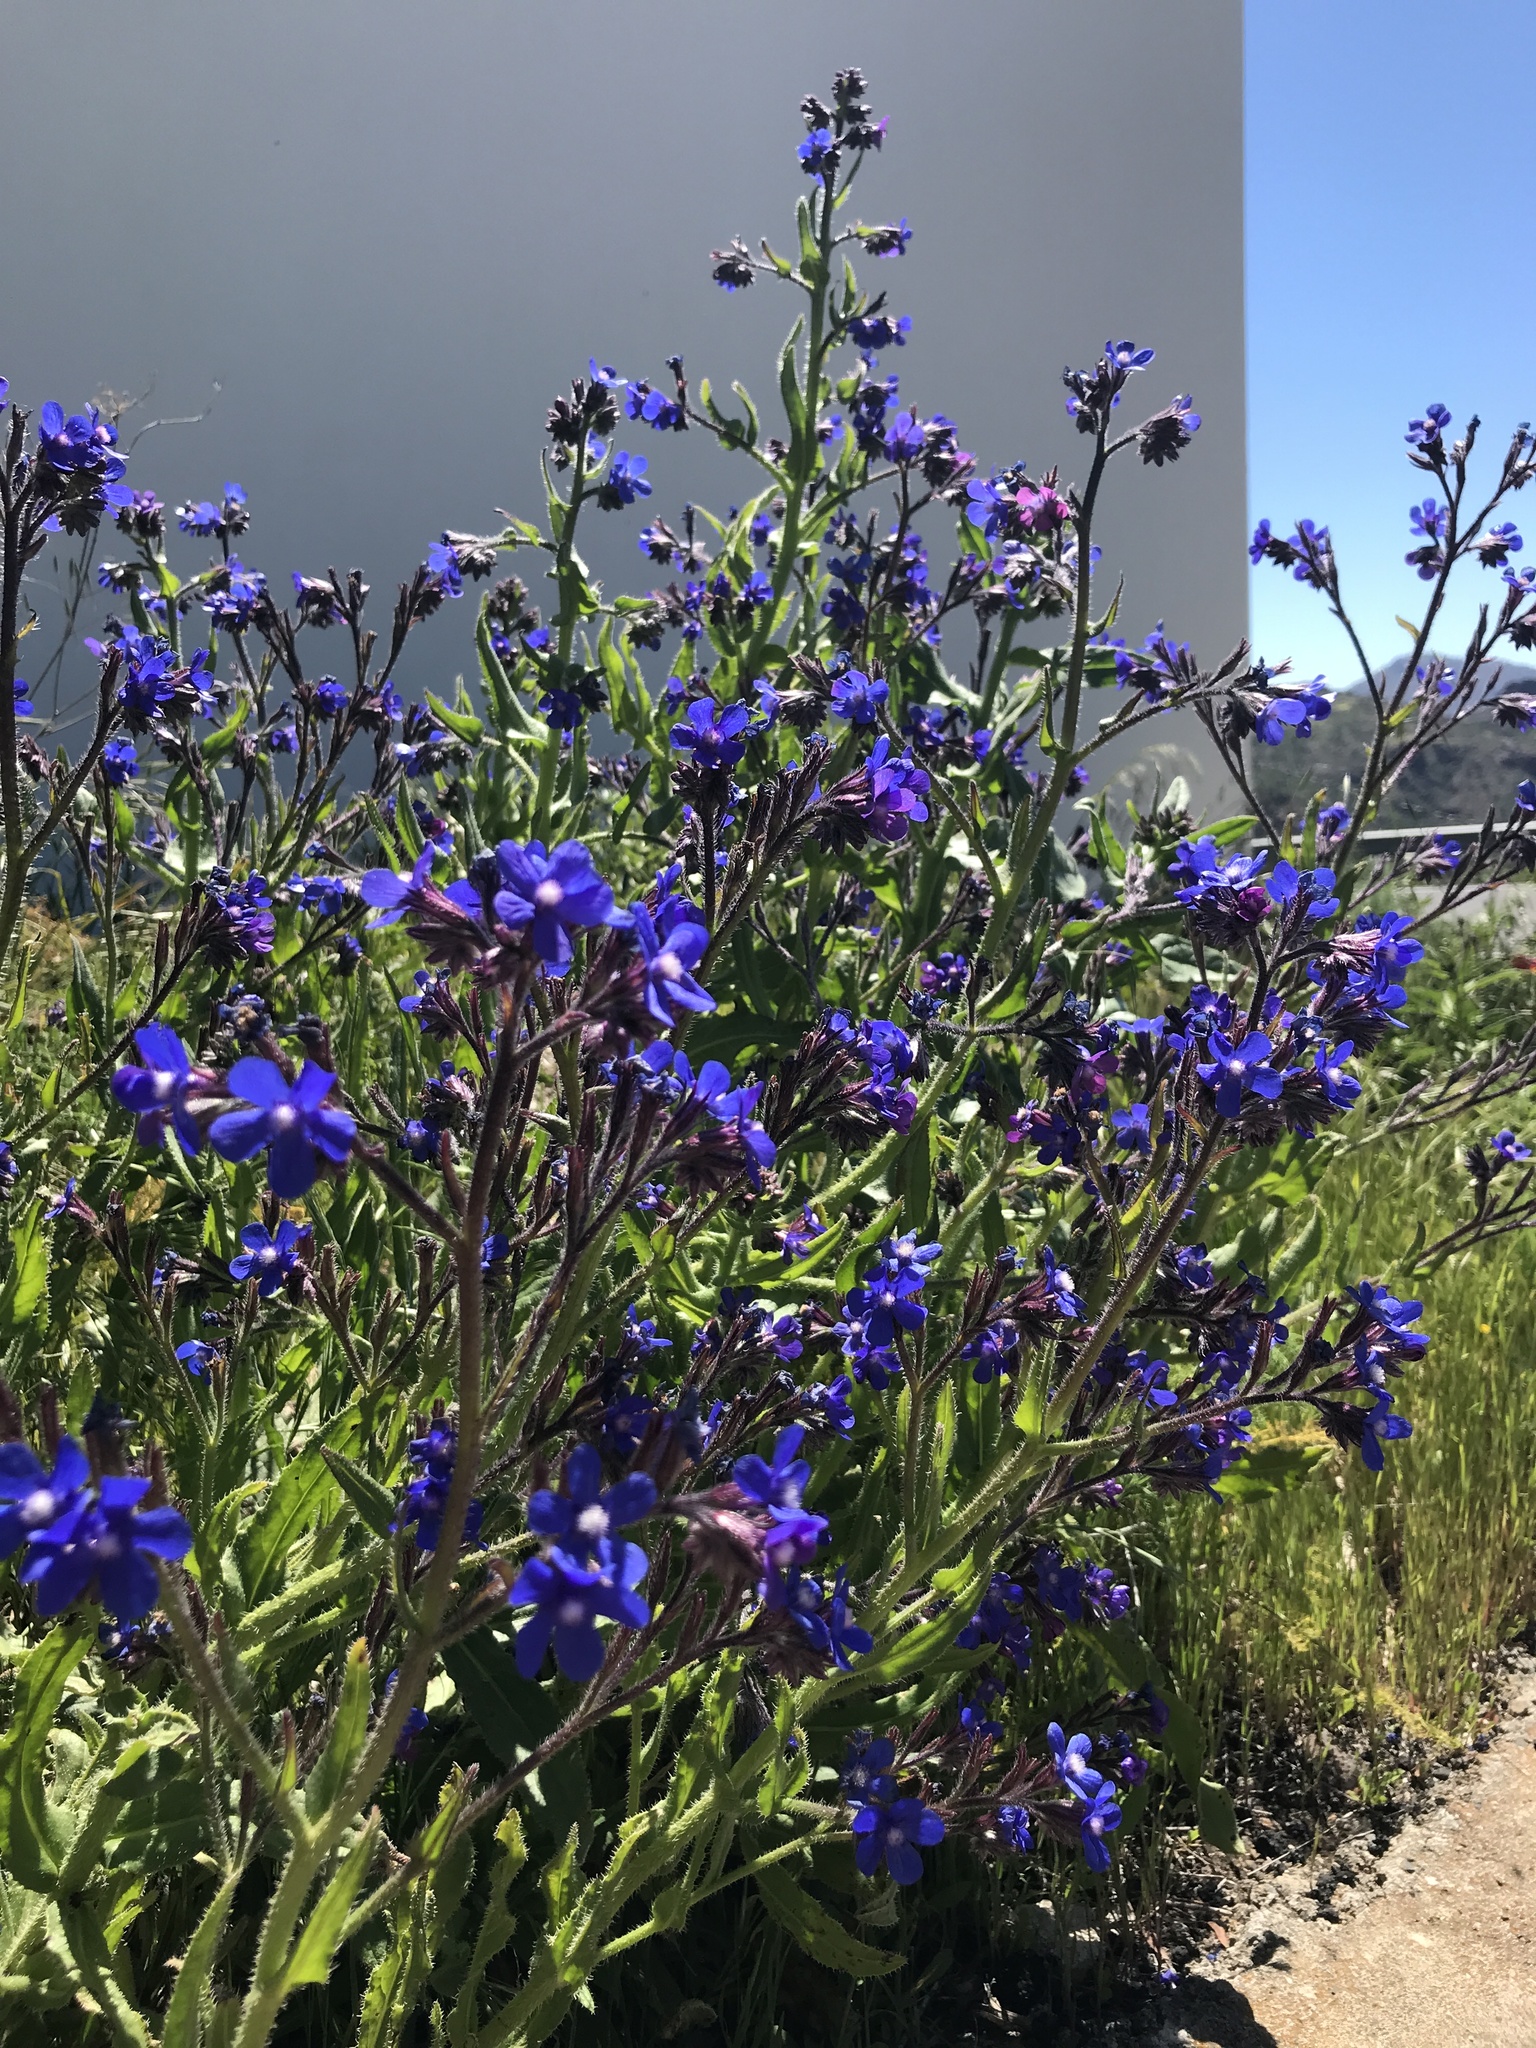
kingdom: Plantae
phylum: Tracheophyta
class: Magnoliopsida
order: Boraginales
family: Boraginaceae
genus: Anchusa
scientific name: Anchusa azurea
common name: Garden anchusa
